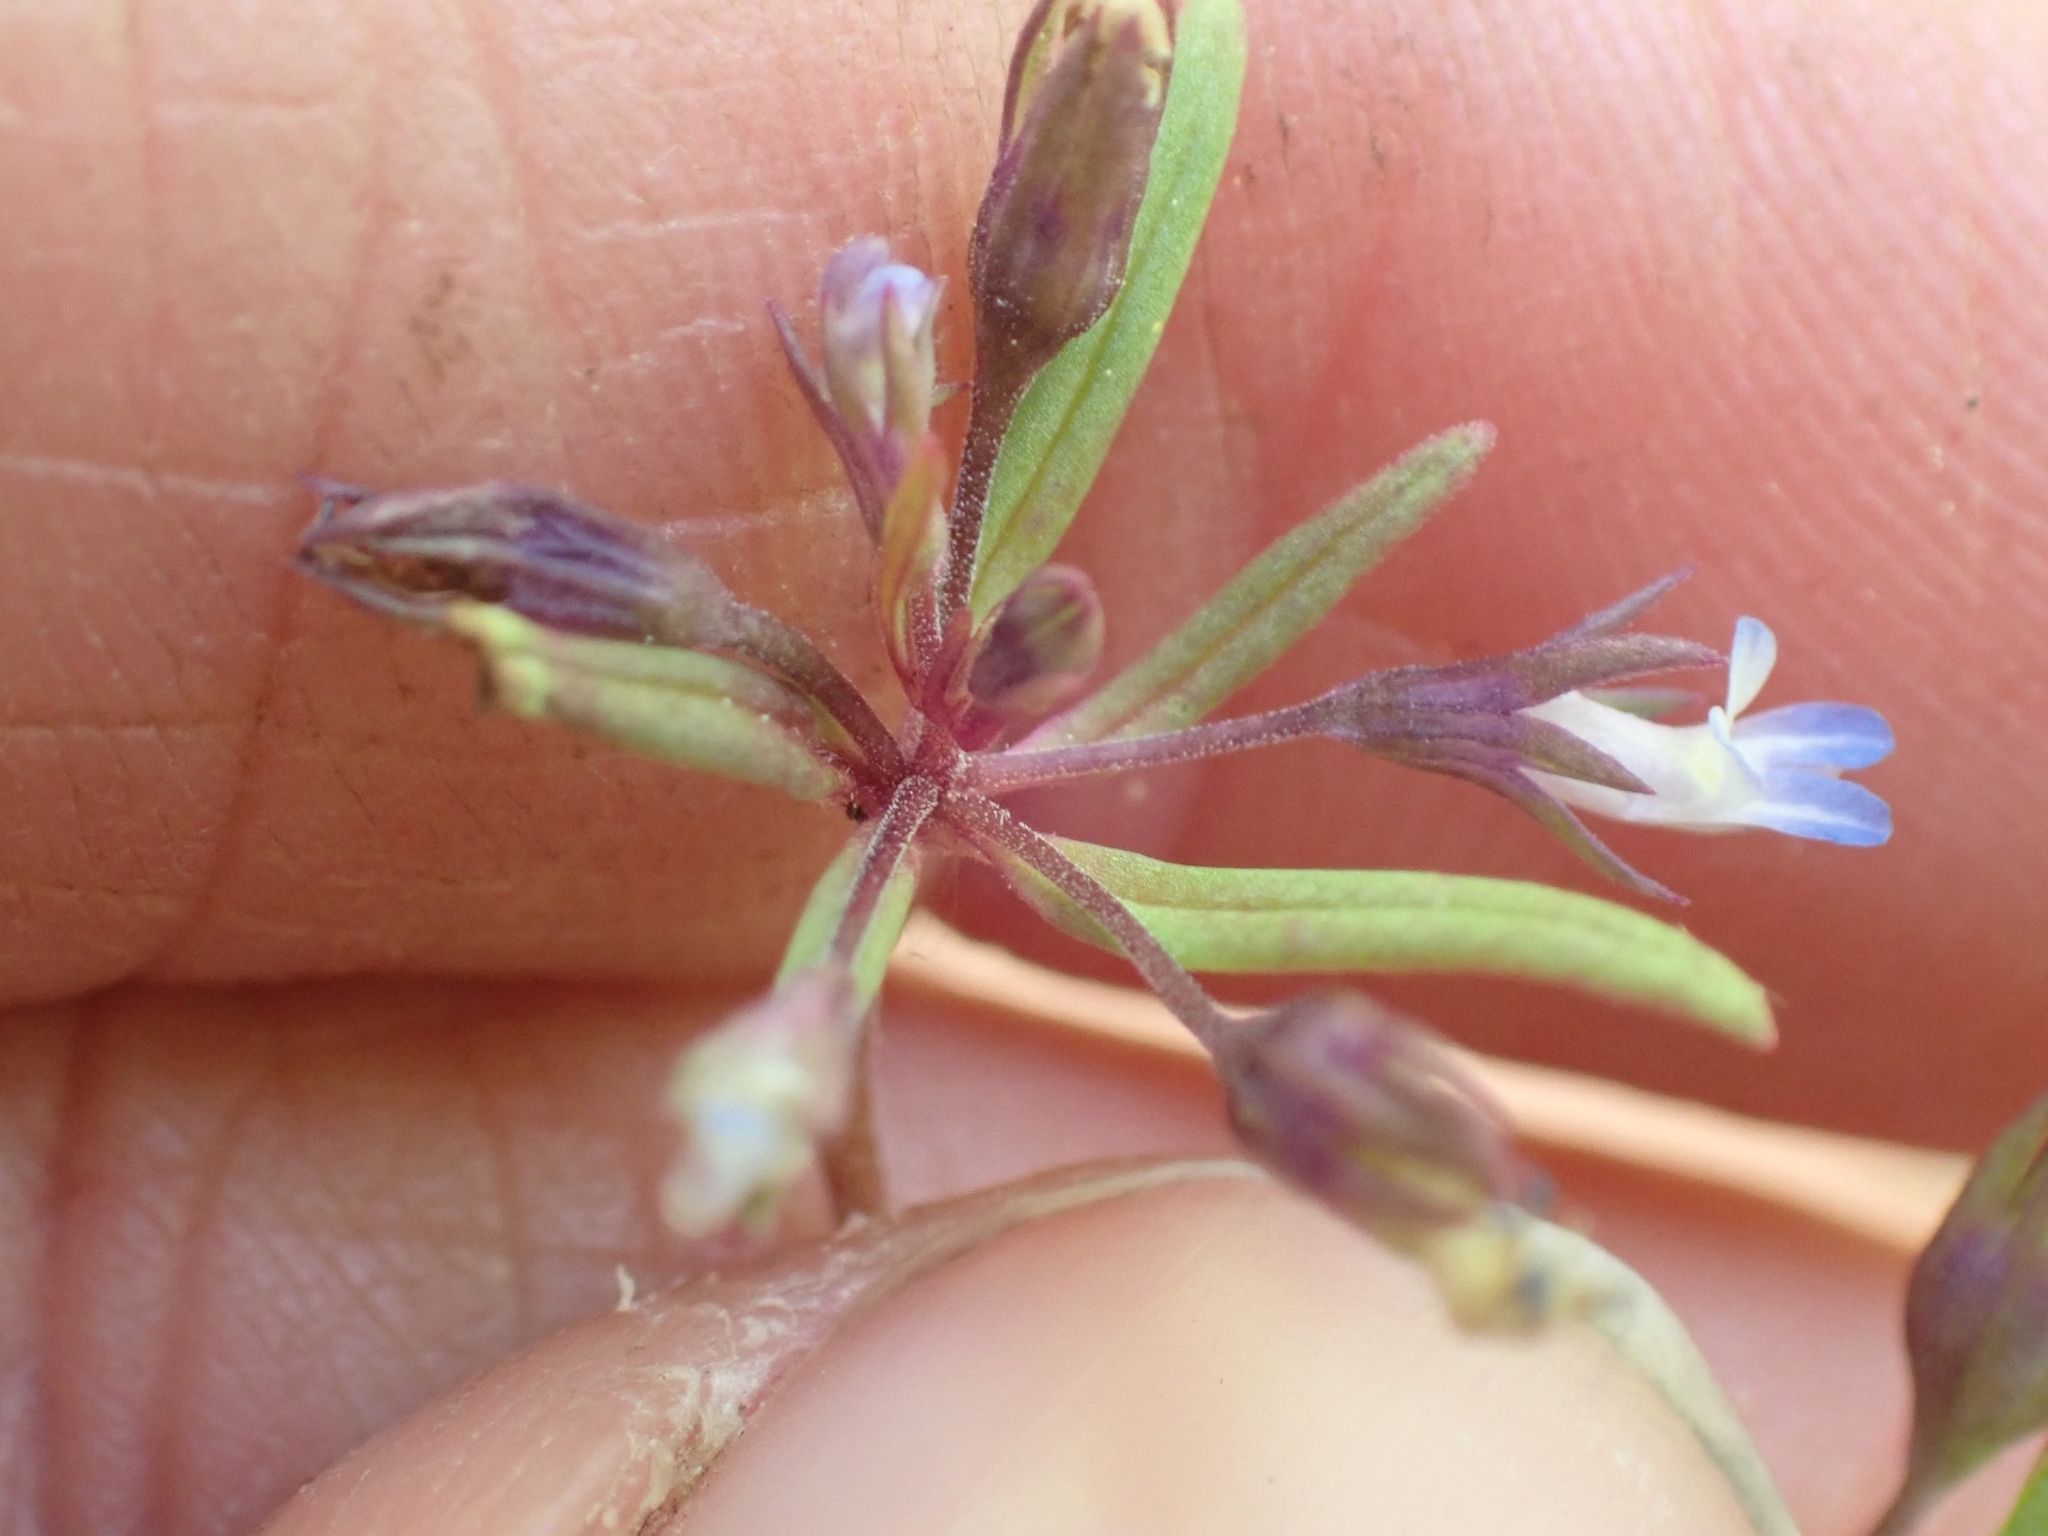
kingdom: Plantae
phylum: Tracheophyta
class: Magnoliopsida
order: Lamiales
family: Plantaginaceae
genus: Collinsia
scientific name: Collinsia parviflora
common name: Blue-lips
